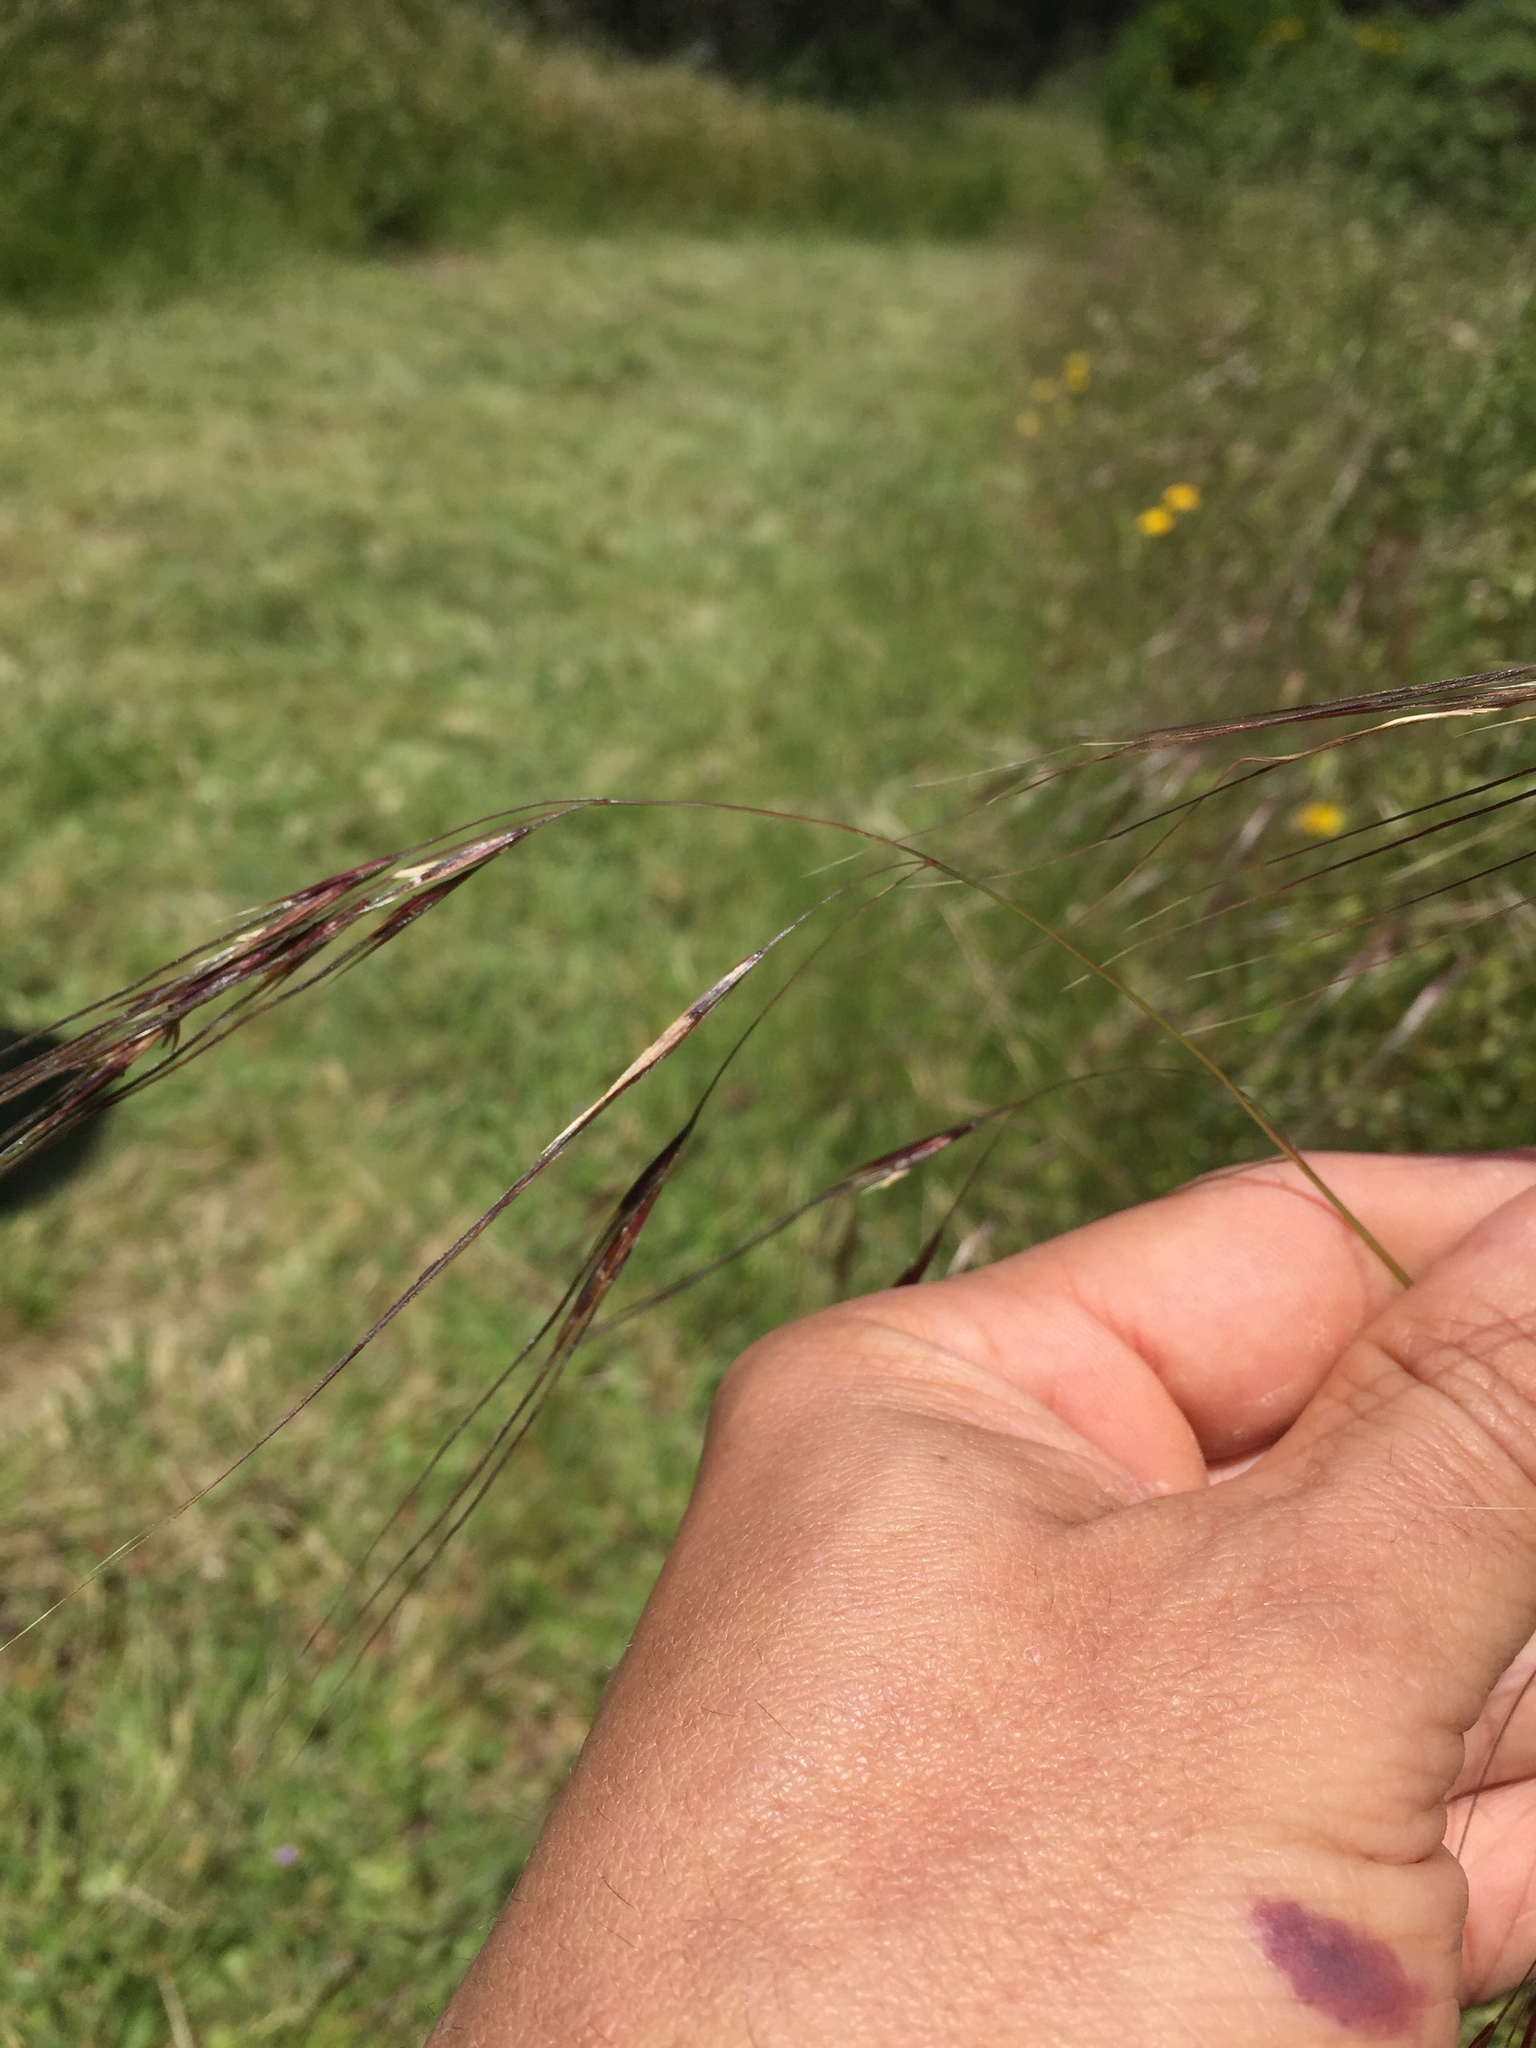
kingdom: Plantae
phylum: Tracheophyta
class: Liliopsida
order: Poales
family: Poaceae
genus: Nassella
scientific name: Nassella pulchra
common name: Purple needlegrass
